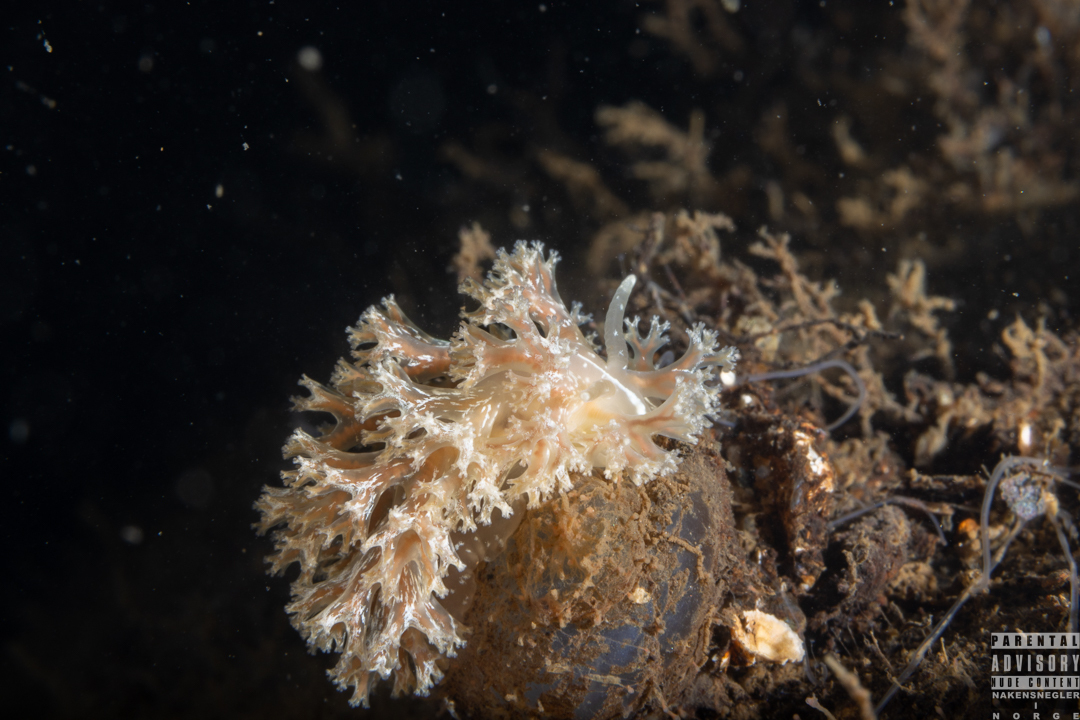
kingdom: Animalia
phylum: Mollusca
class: Gastropoda
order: Nudibranchia
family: Heroidae
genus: Hero
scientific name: Hero formosa
